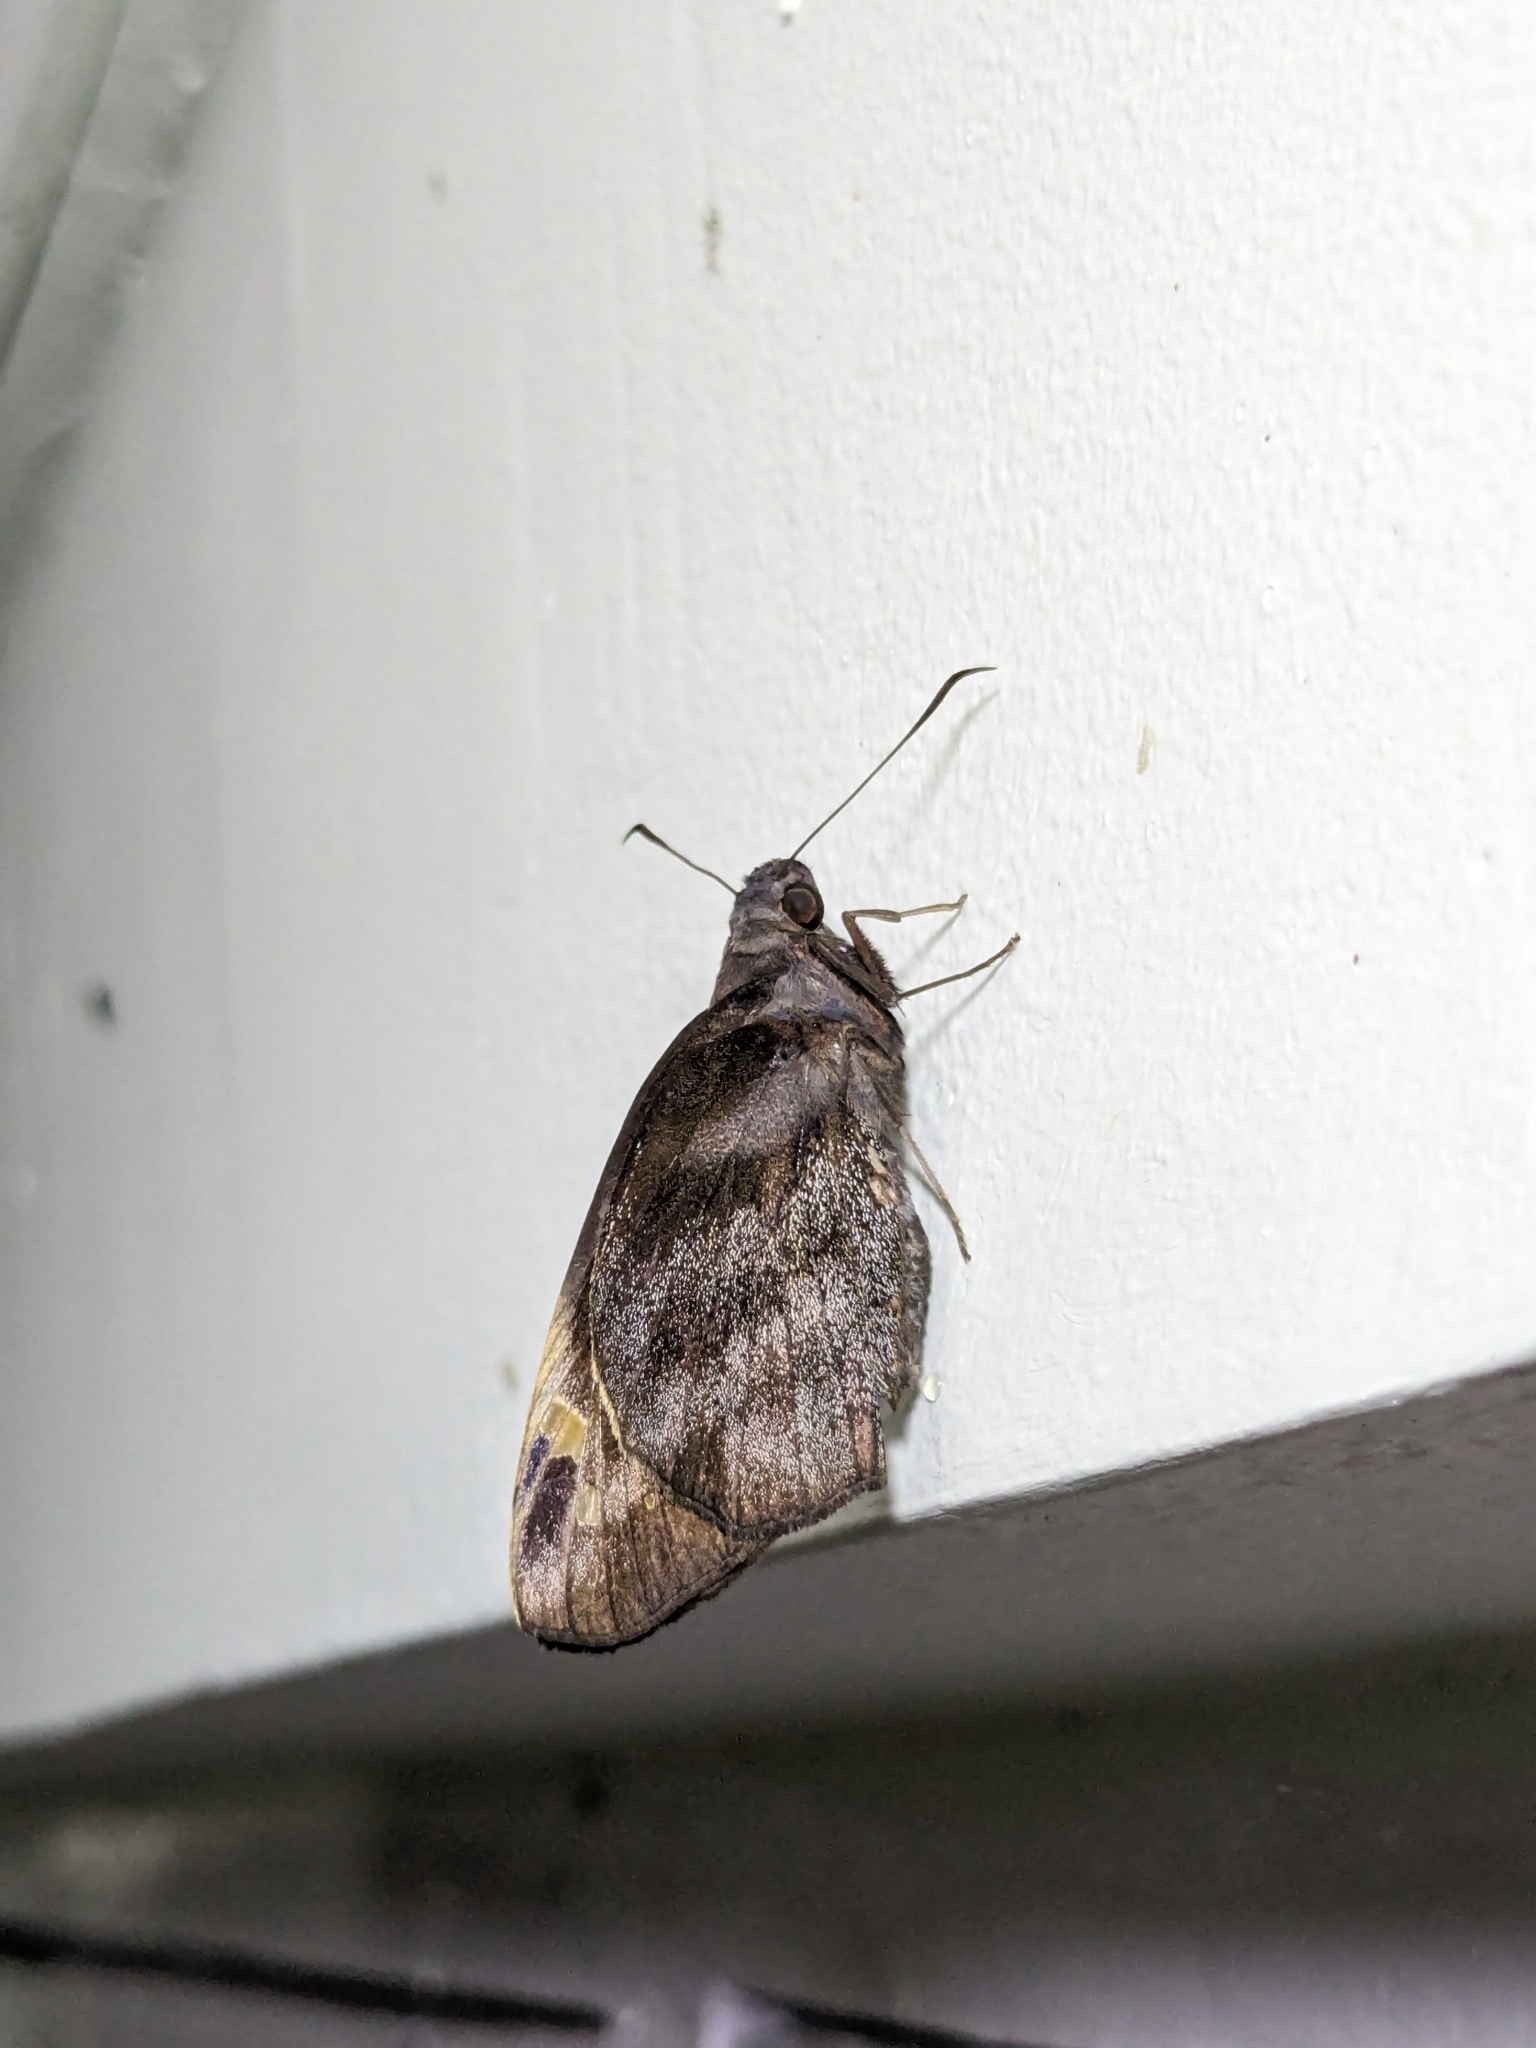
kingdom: Animalia
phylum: Arthropoda
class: Insecta
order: Lepidoptera
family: Hesperiidae
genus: Gangara
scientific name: Gangara thyrsis
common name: Giant redeye
